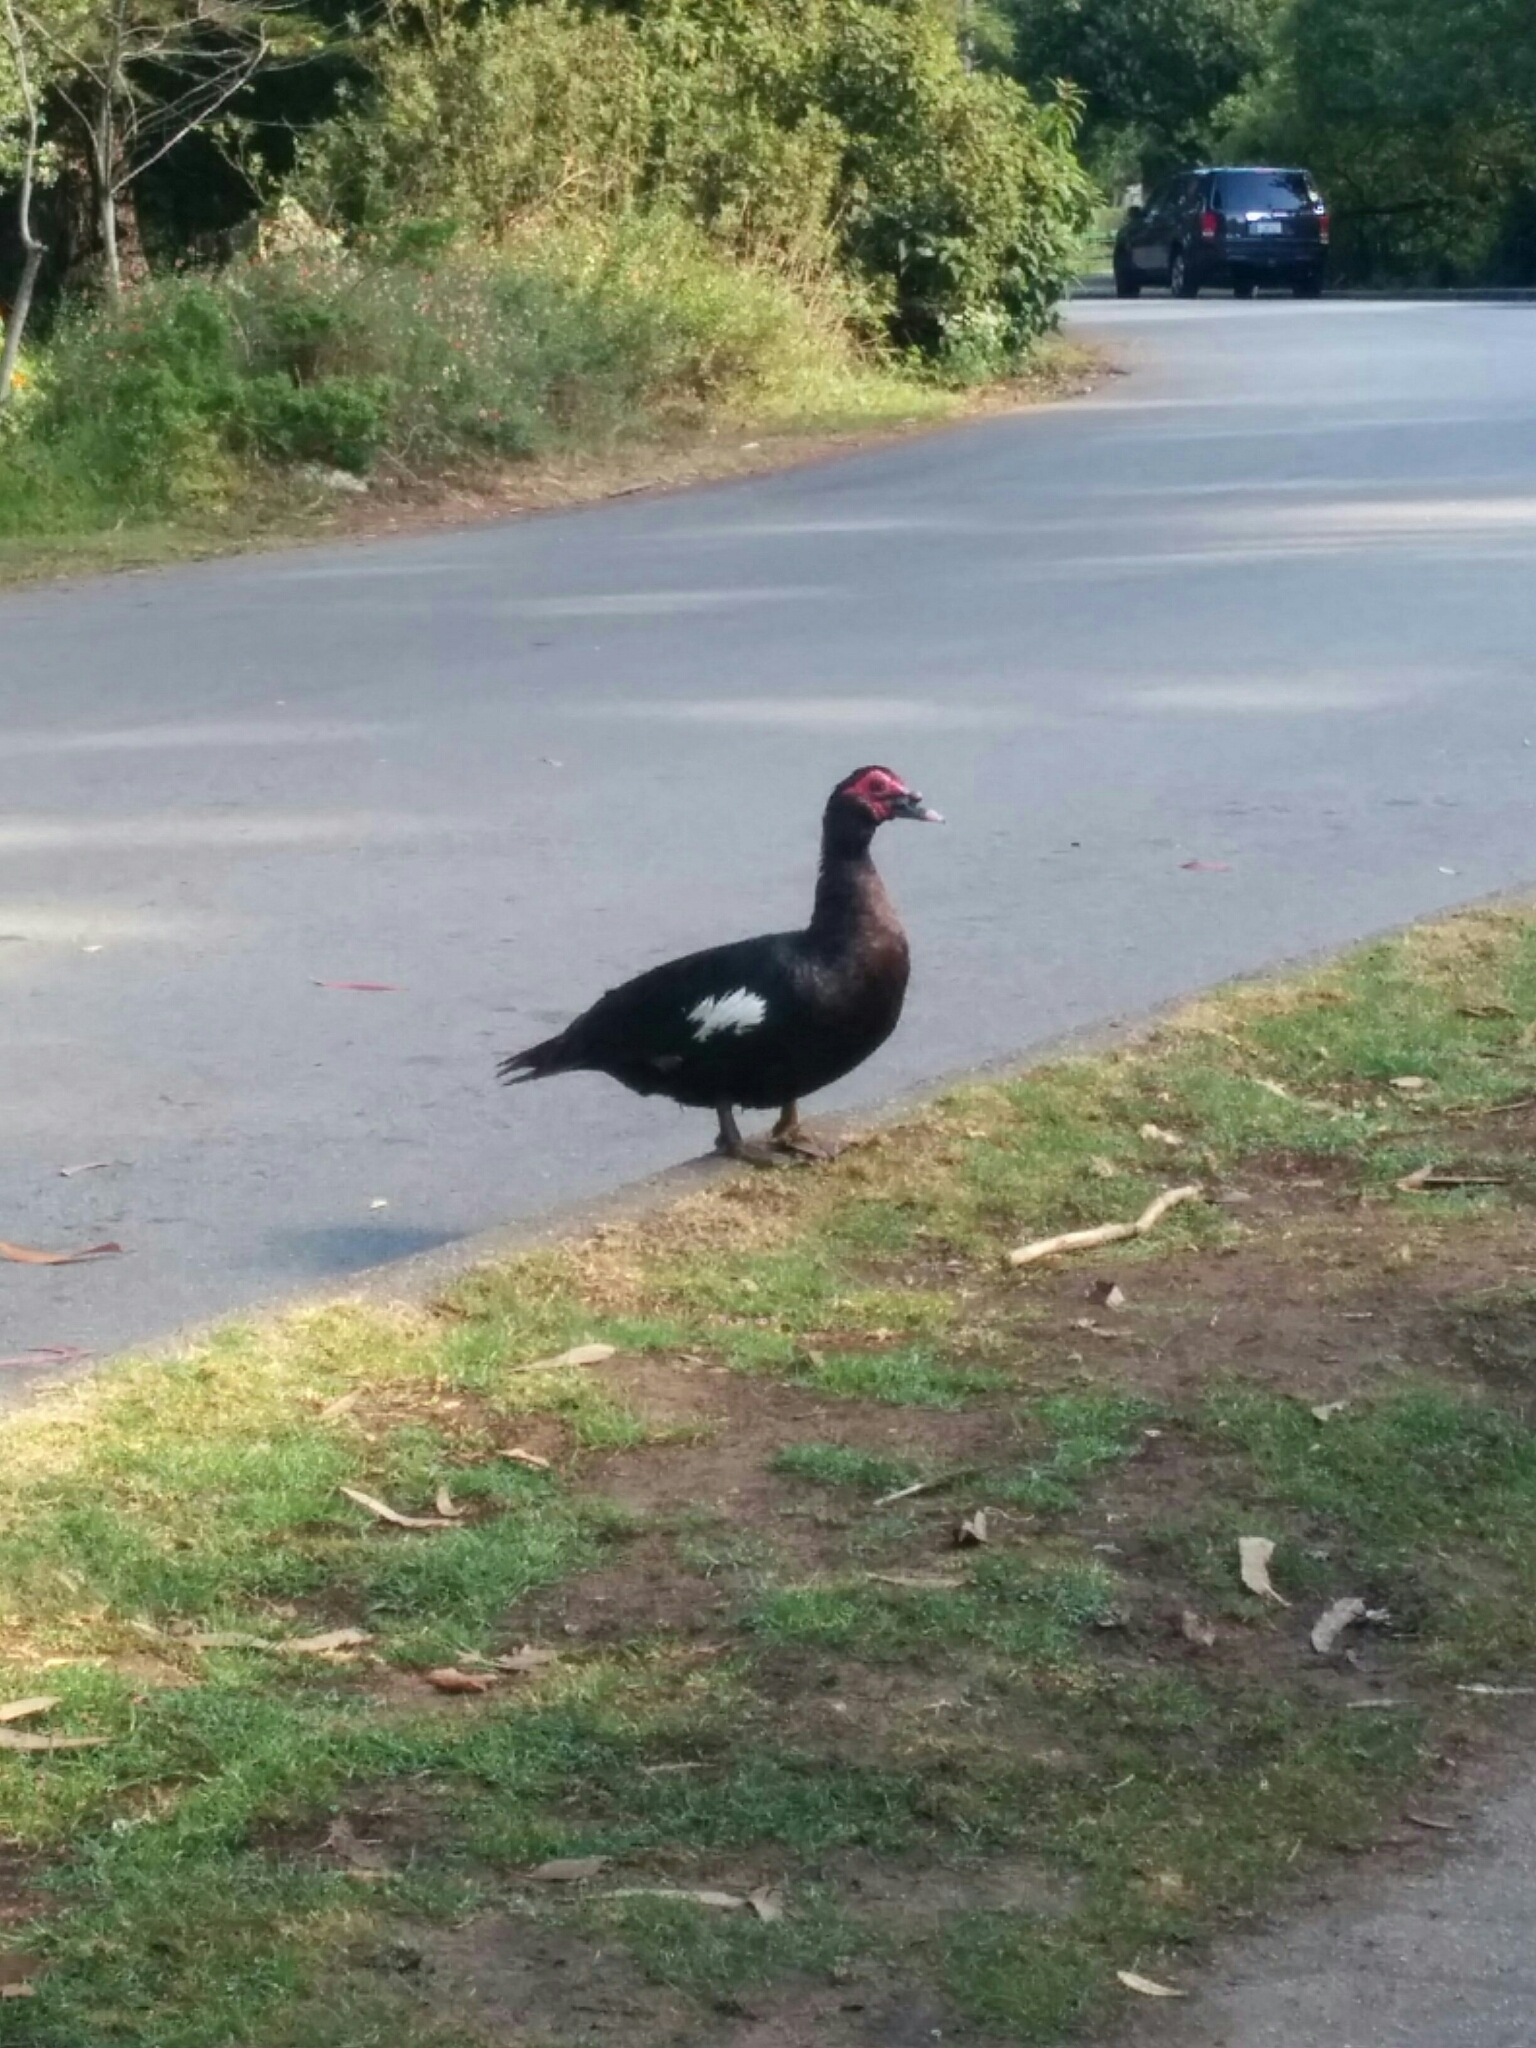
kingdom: Animalia
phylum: Chordata
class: Aves
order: Anseriformes
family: Anatidae
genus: Cairina
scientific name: Cairina moschata
